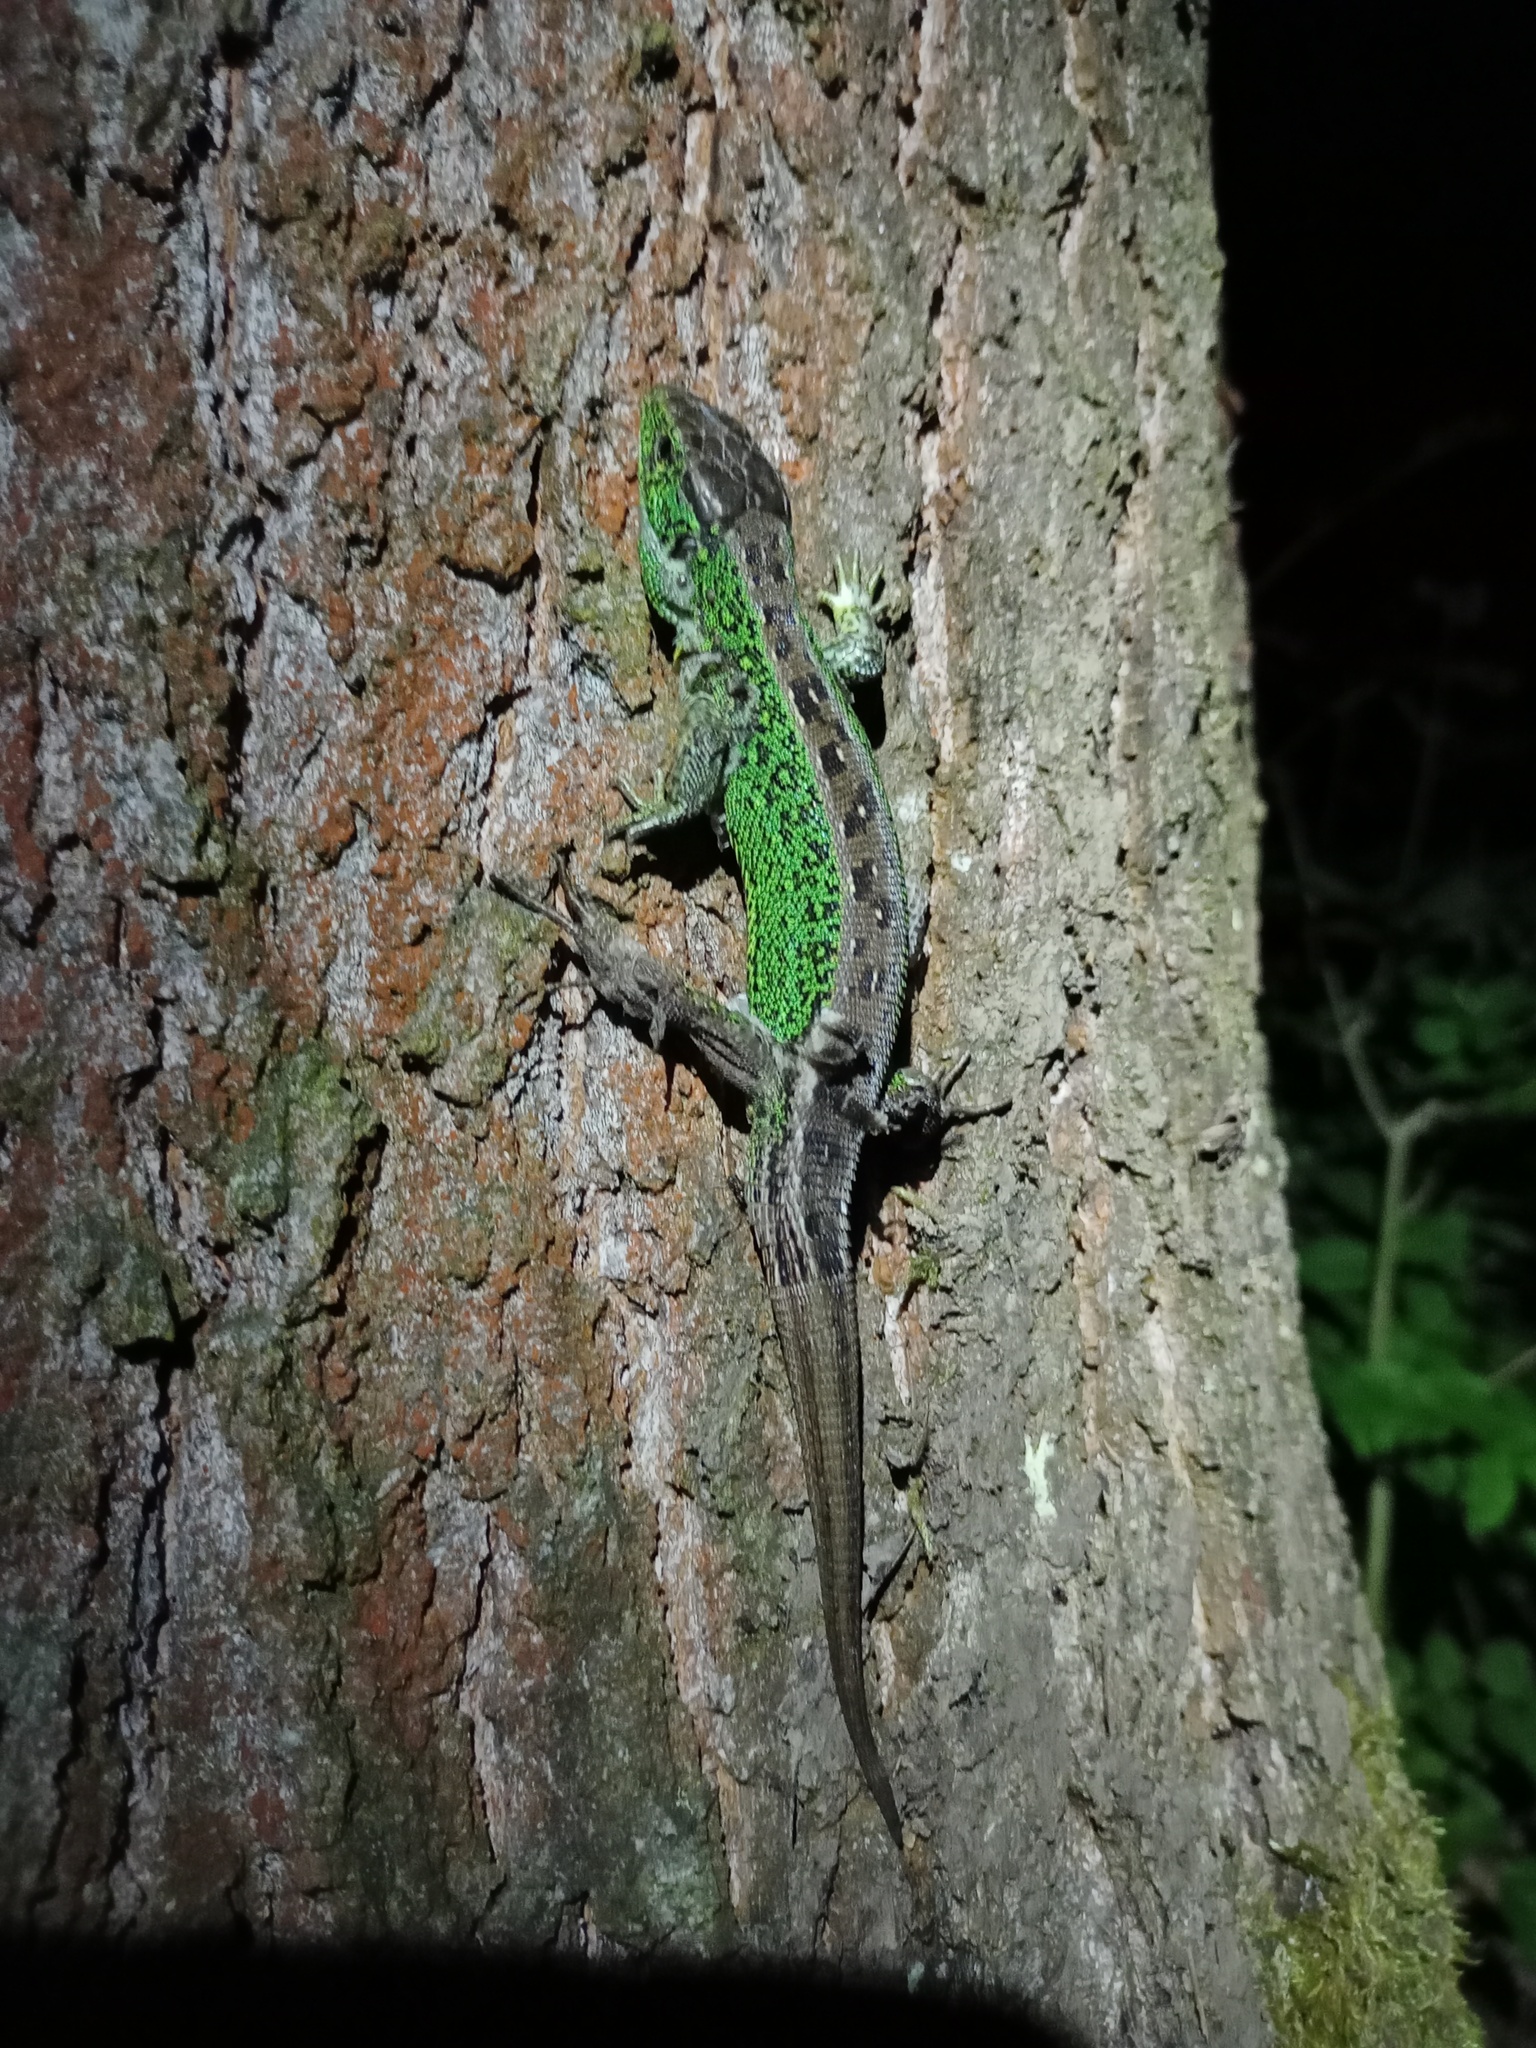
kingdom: Animalia
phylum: Chordata
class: Squamata
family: Lacertidae
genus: Lacerta
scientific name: Lacerta agilis
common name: Sand lizard
